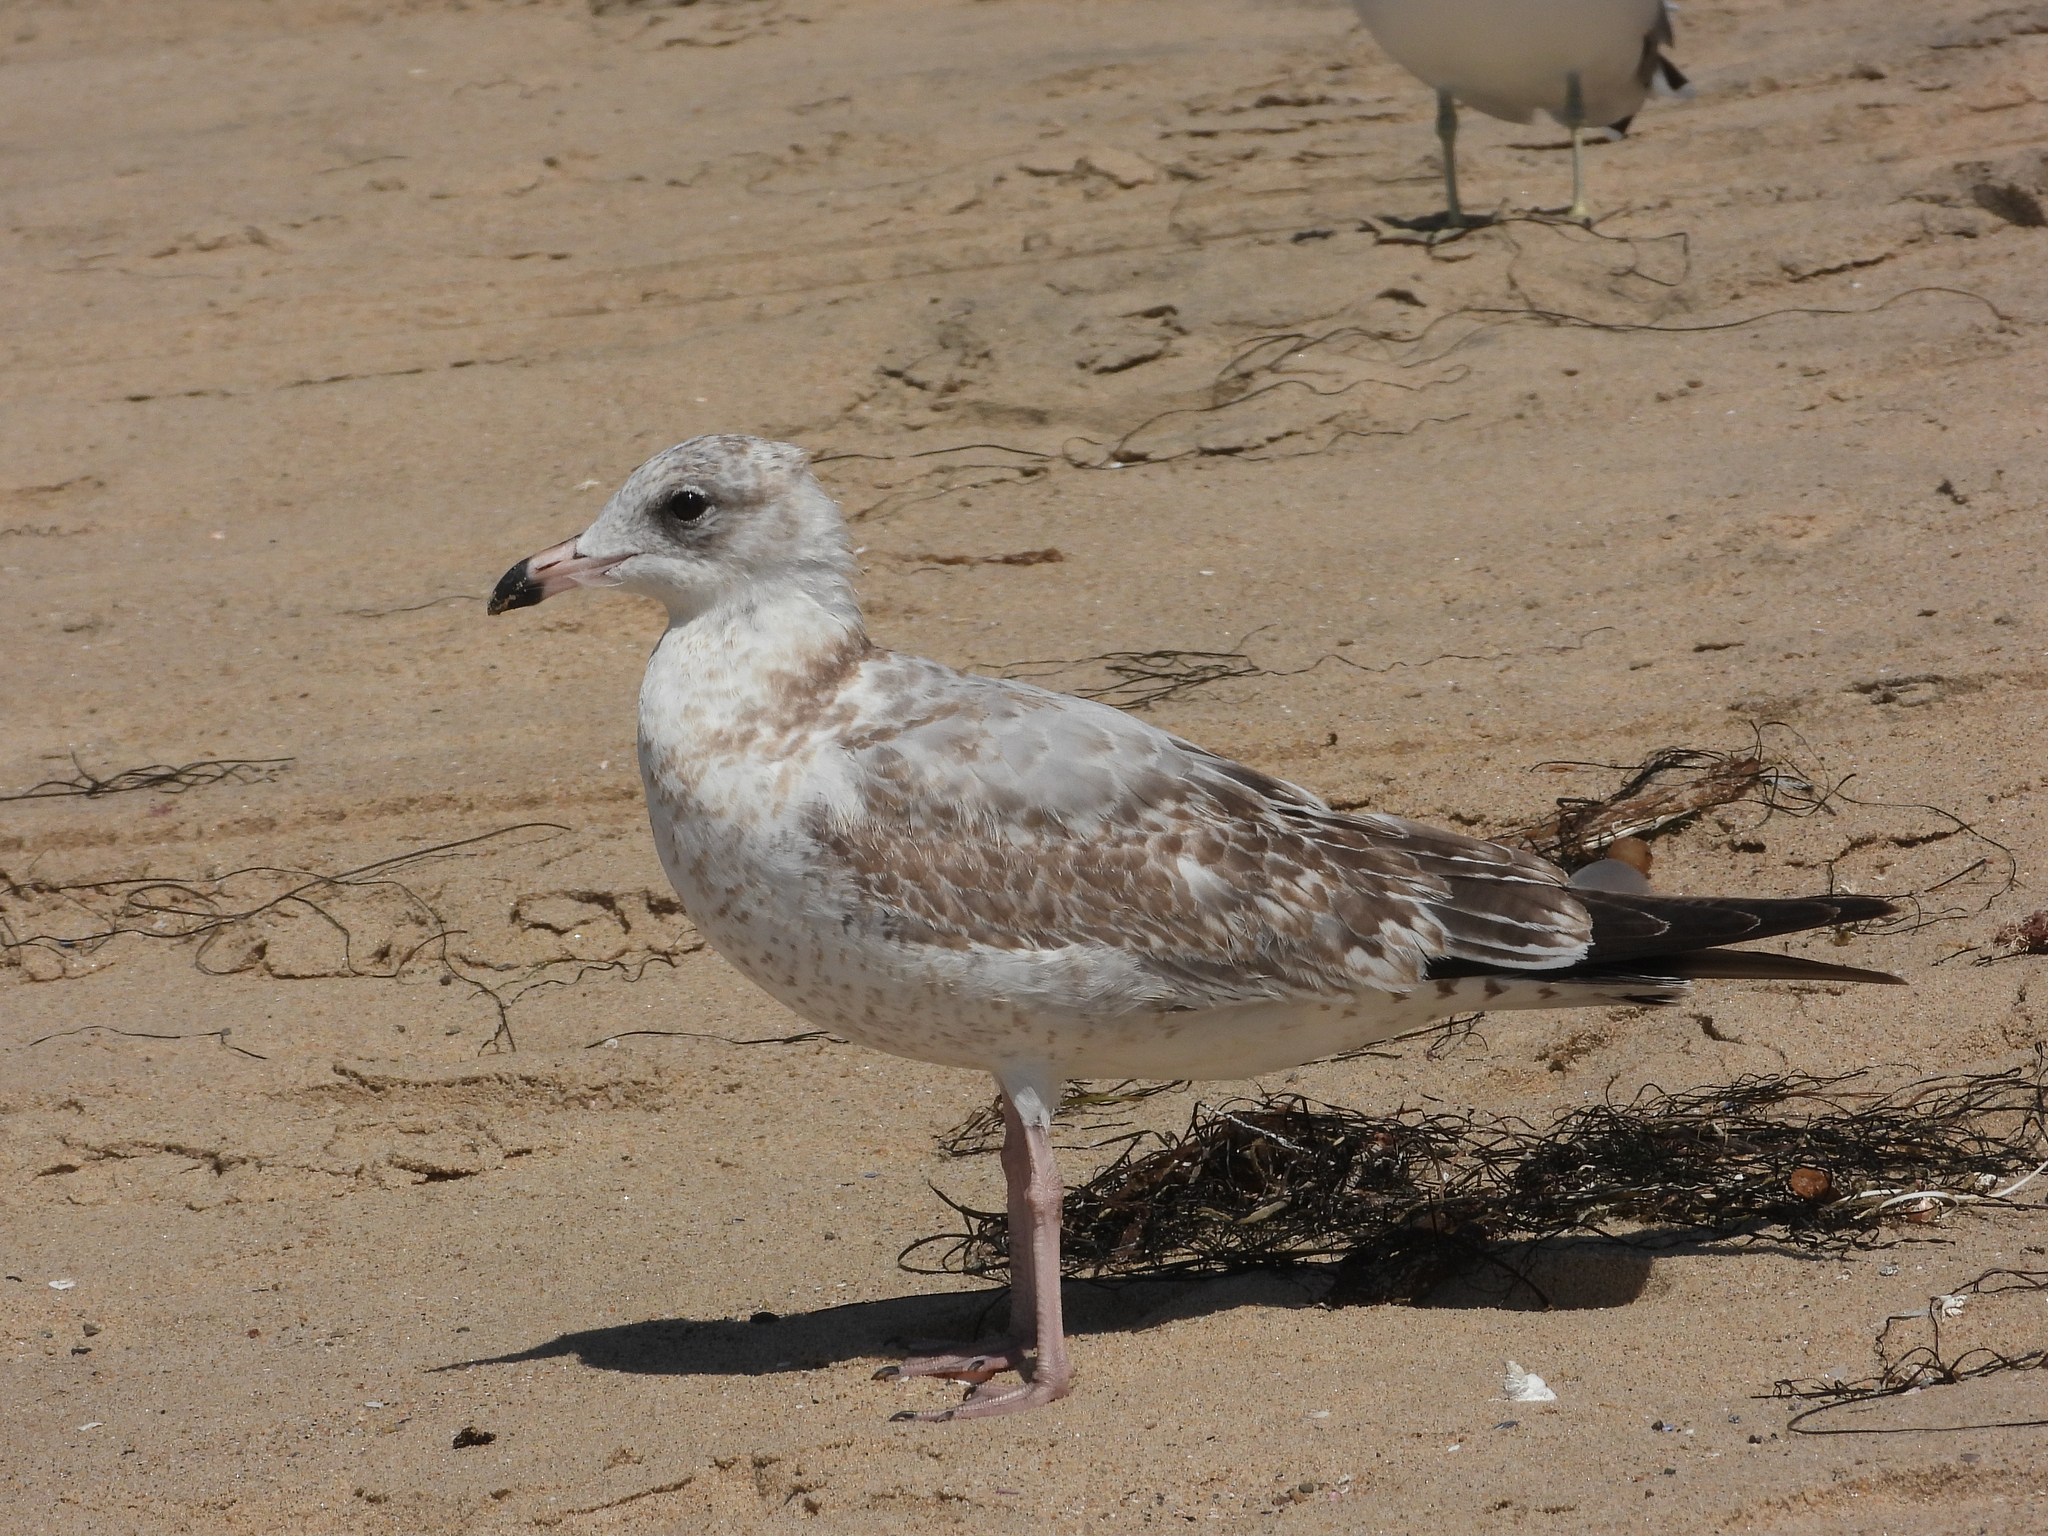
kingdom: Animalia
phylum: Chordata
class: Aves
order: Charadriiformes
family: Laridae
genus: Larus
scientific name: Larus delawarensis
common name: Ring-billed gull
